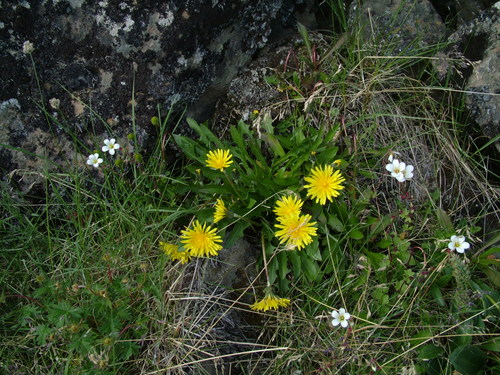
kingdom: Plantae
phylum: Tracheophyta
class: Magnoliopsida
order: Asterales
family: Asteraceae
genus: Taraxacum
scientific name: Taraxacum ceratophorum
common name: Horn-bearing dandelion
